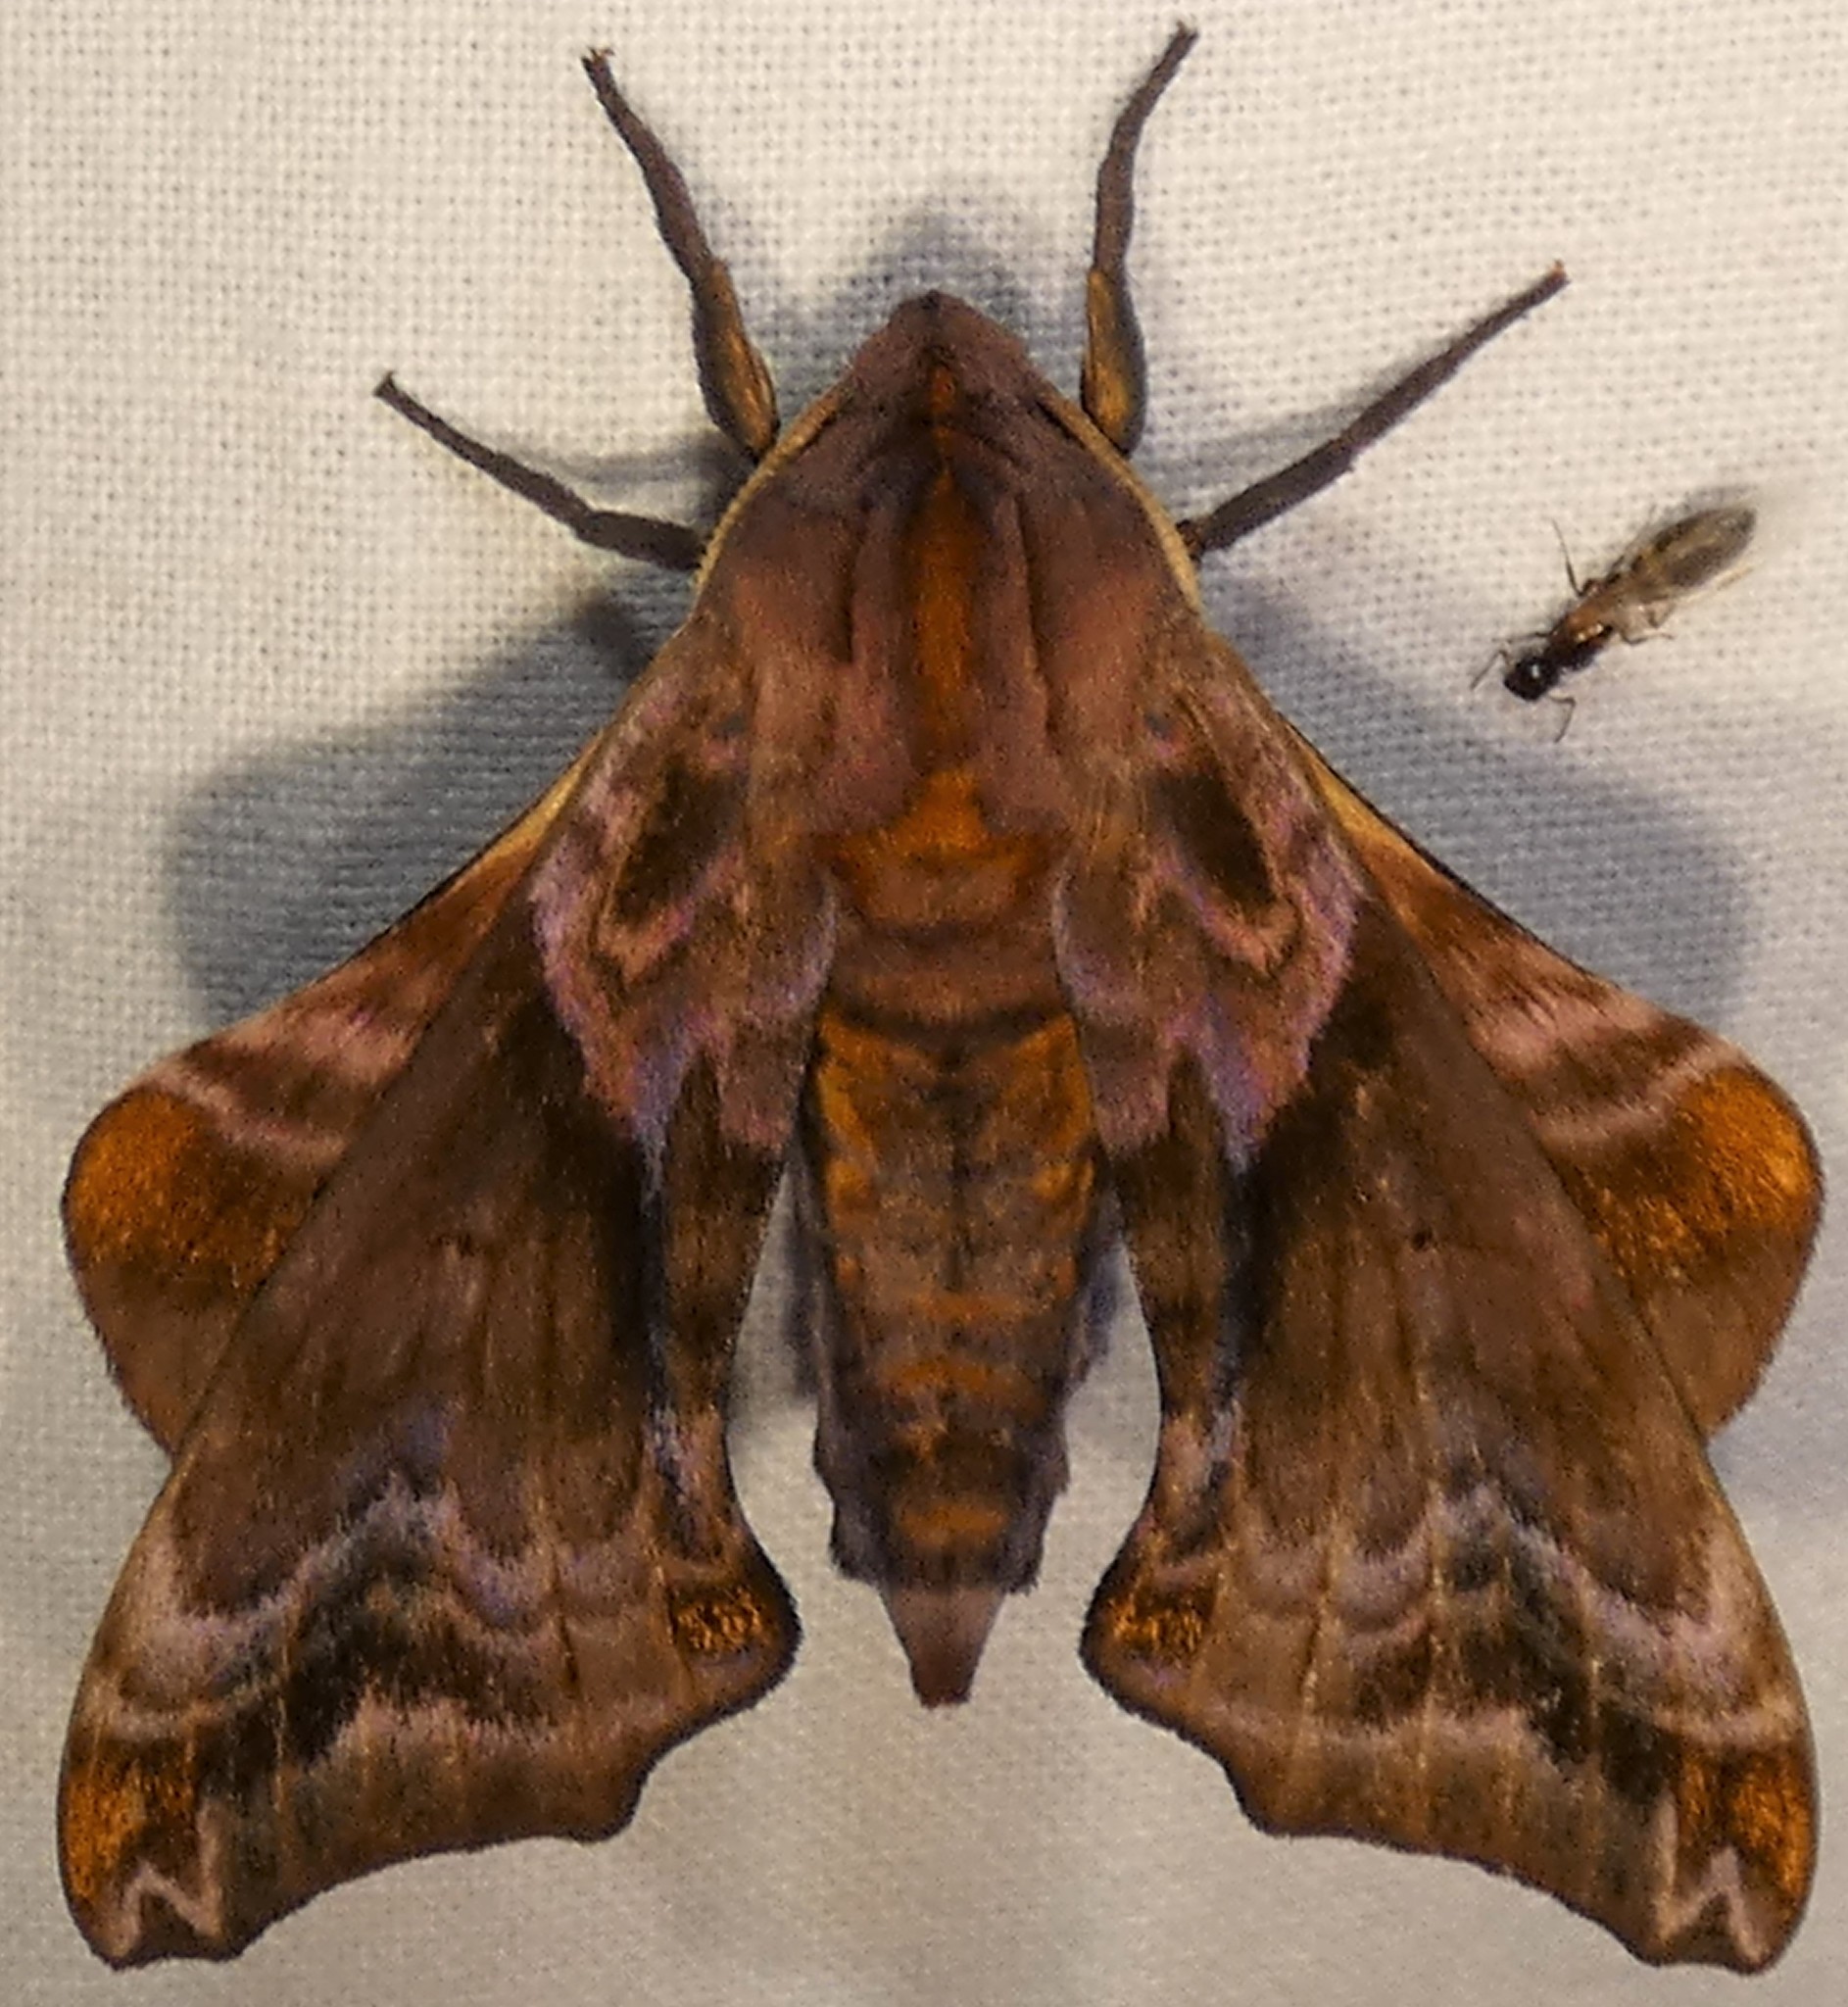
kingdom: Animalia
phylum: Arthropoda
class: Insecta
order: Lepidoptera
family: Sphingidae
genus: Paonias
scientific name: Paonias myops
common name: Small-eyed sphinx
